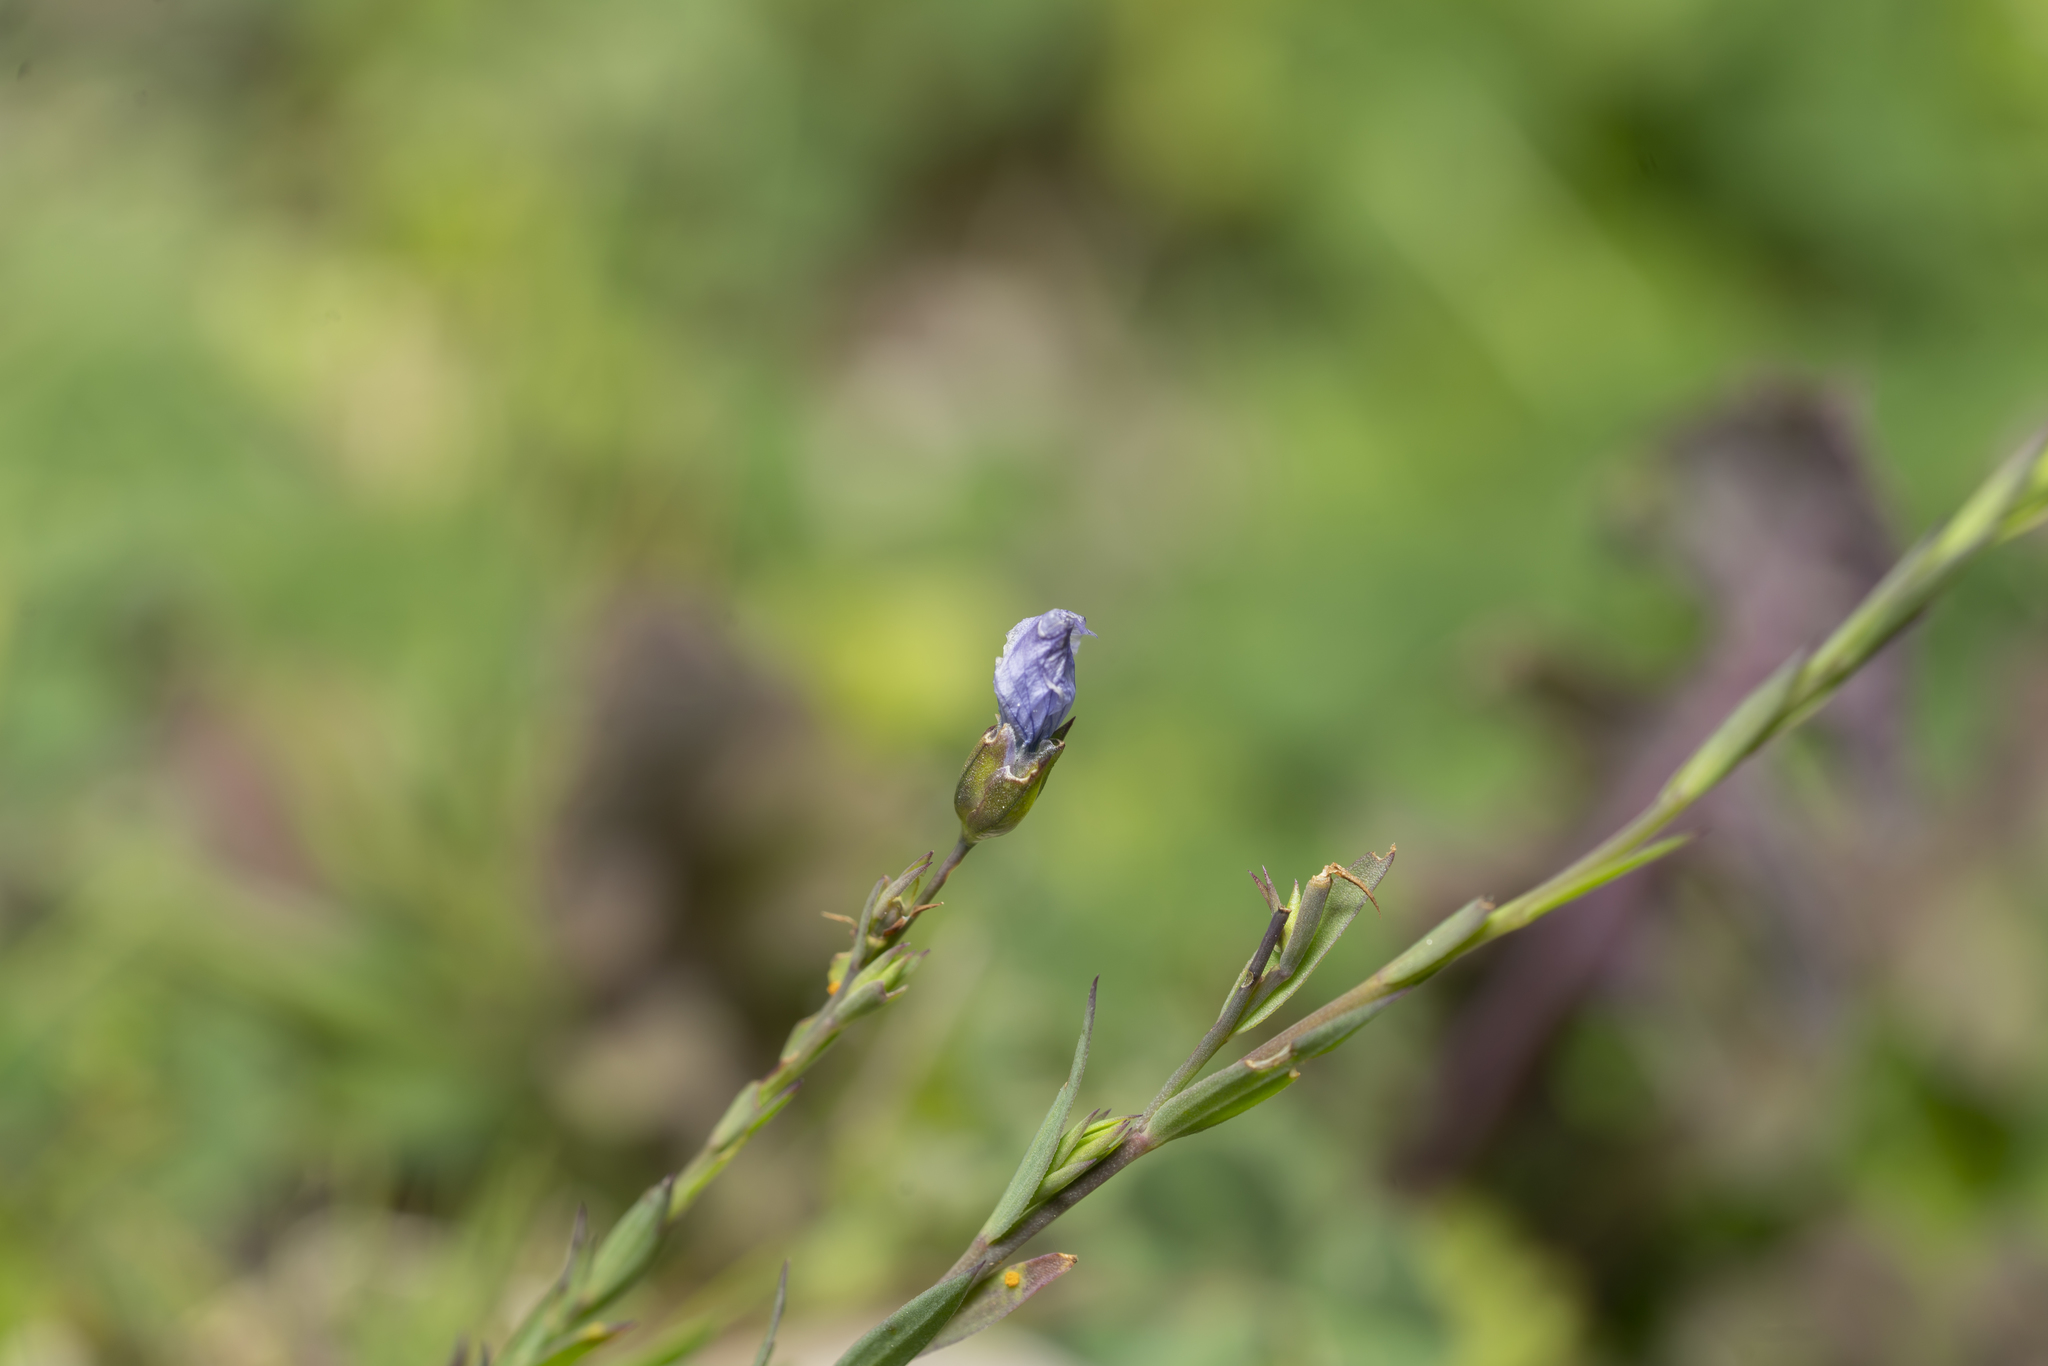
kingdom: Plantae
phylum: Tracheophyta
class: Magnoliopsida
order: Malpighiales
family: Linaceae
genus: Linum
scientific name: Linum bienne
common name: Pale flax
